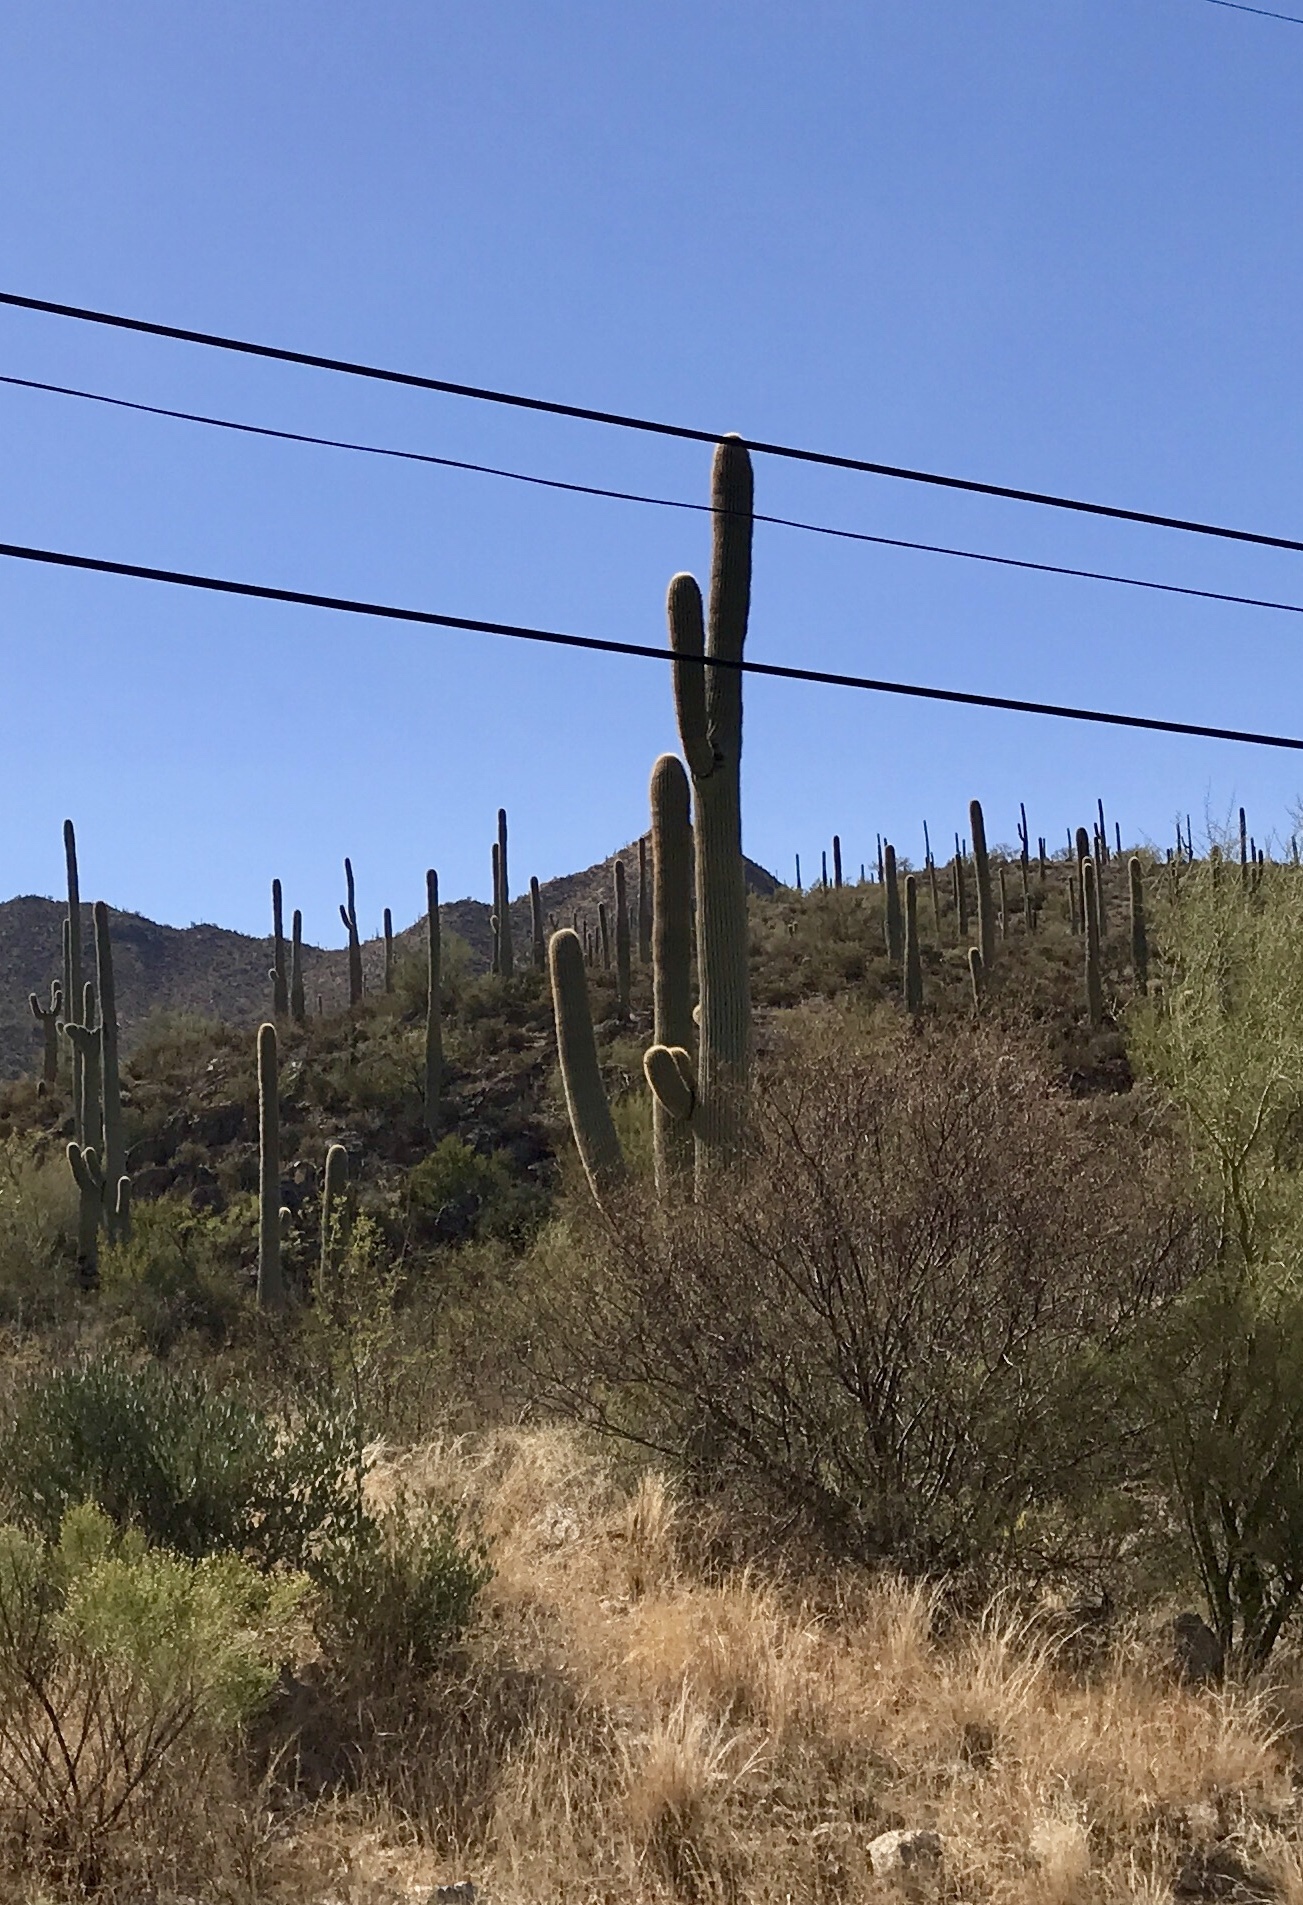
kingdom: Plantae
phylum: Tracheophyta
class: Magnoliopsida
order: Caryophyllales
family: Cactaceae
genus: Carnegiea
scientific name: Carnegiea gigantea
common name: Saguaro
